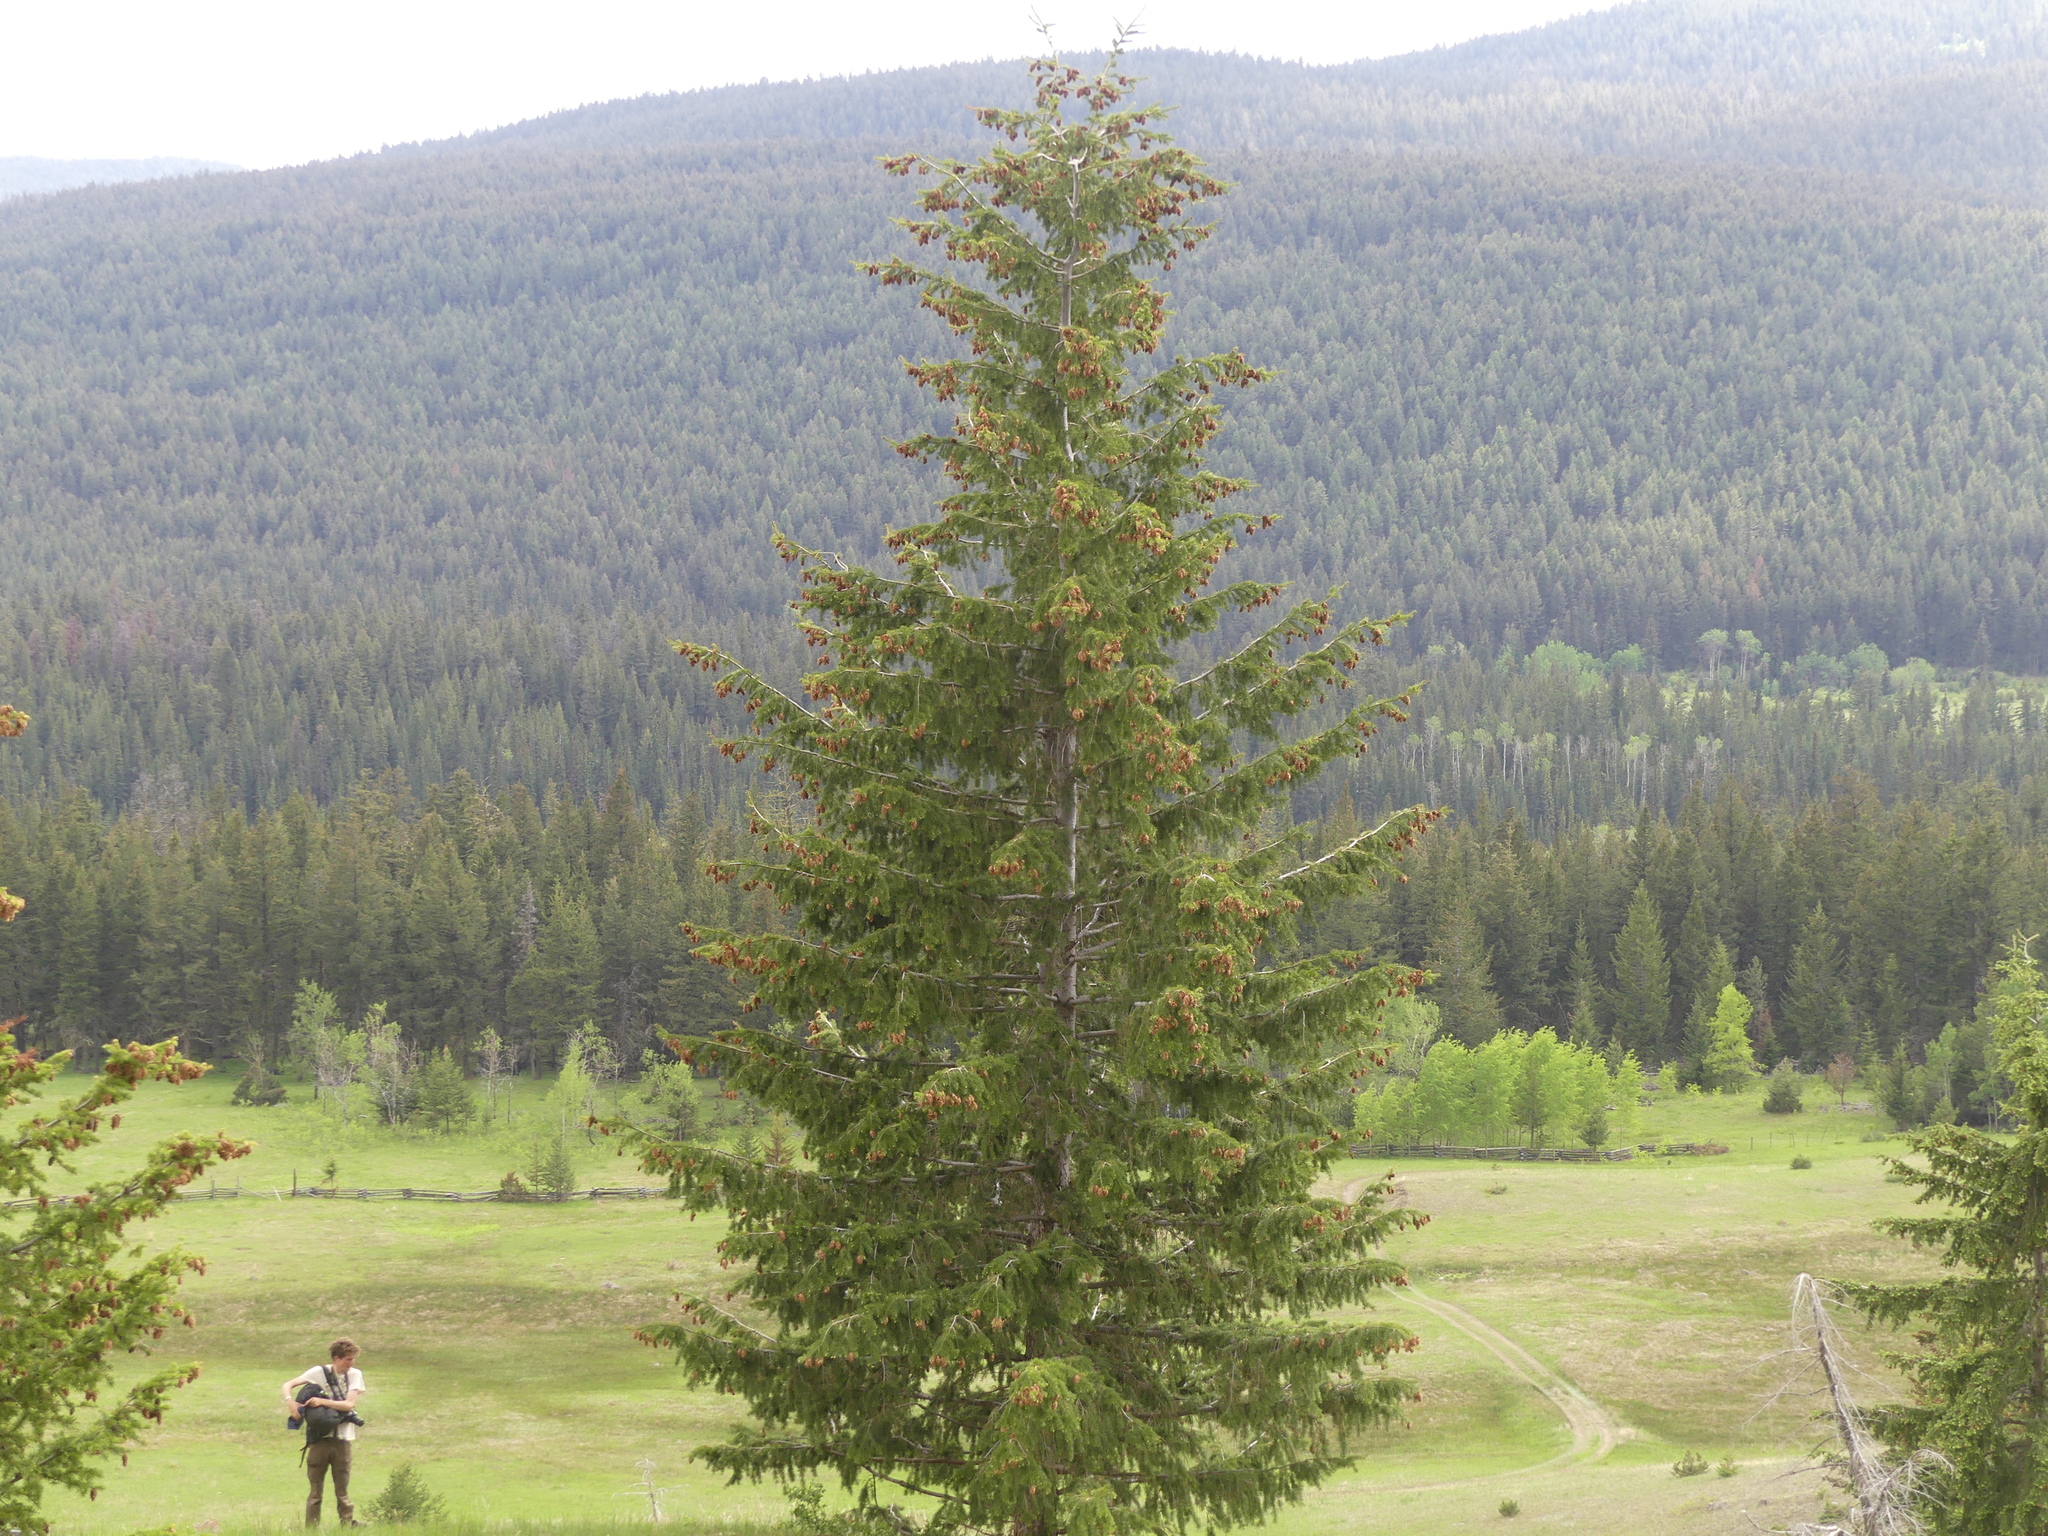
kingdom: Plantae
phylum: Tracheophyta
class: Pinopsida
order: Pinales
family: Pinaceae
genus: Pseudotsuga
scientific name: Pseudotsuga menziesii
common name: Douglas fir
